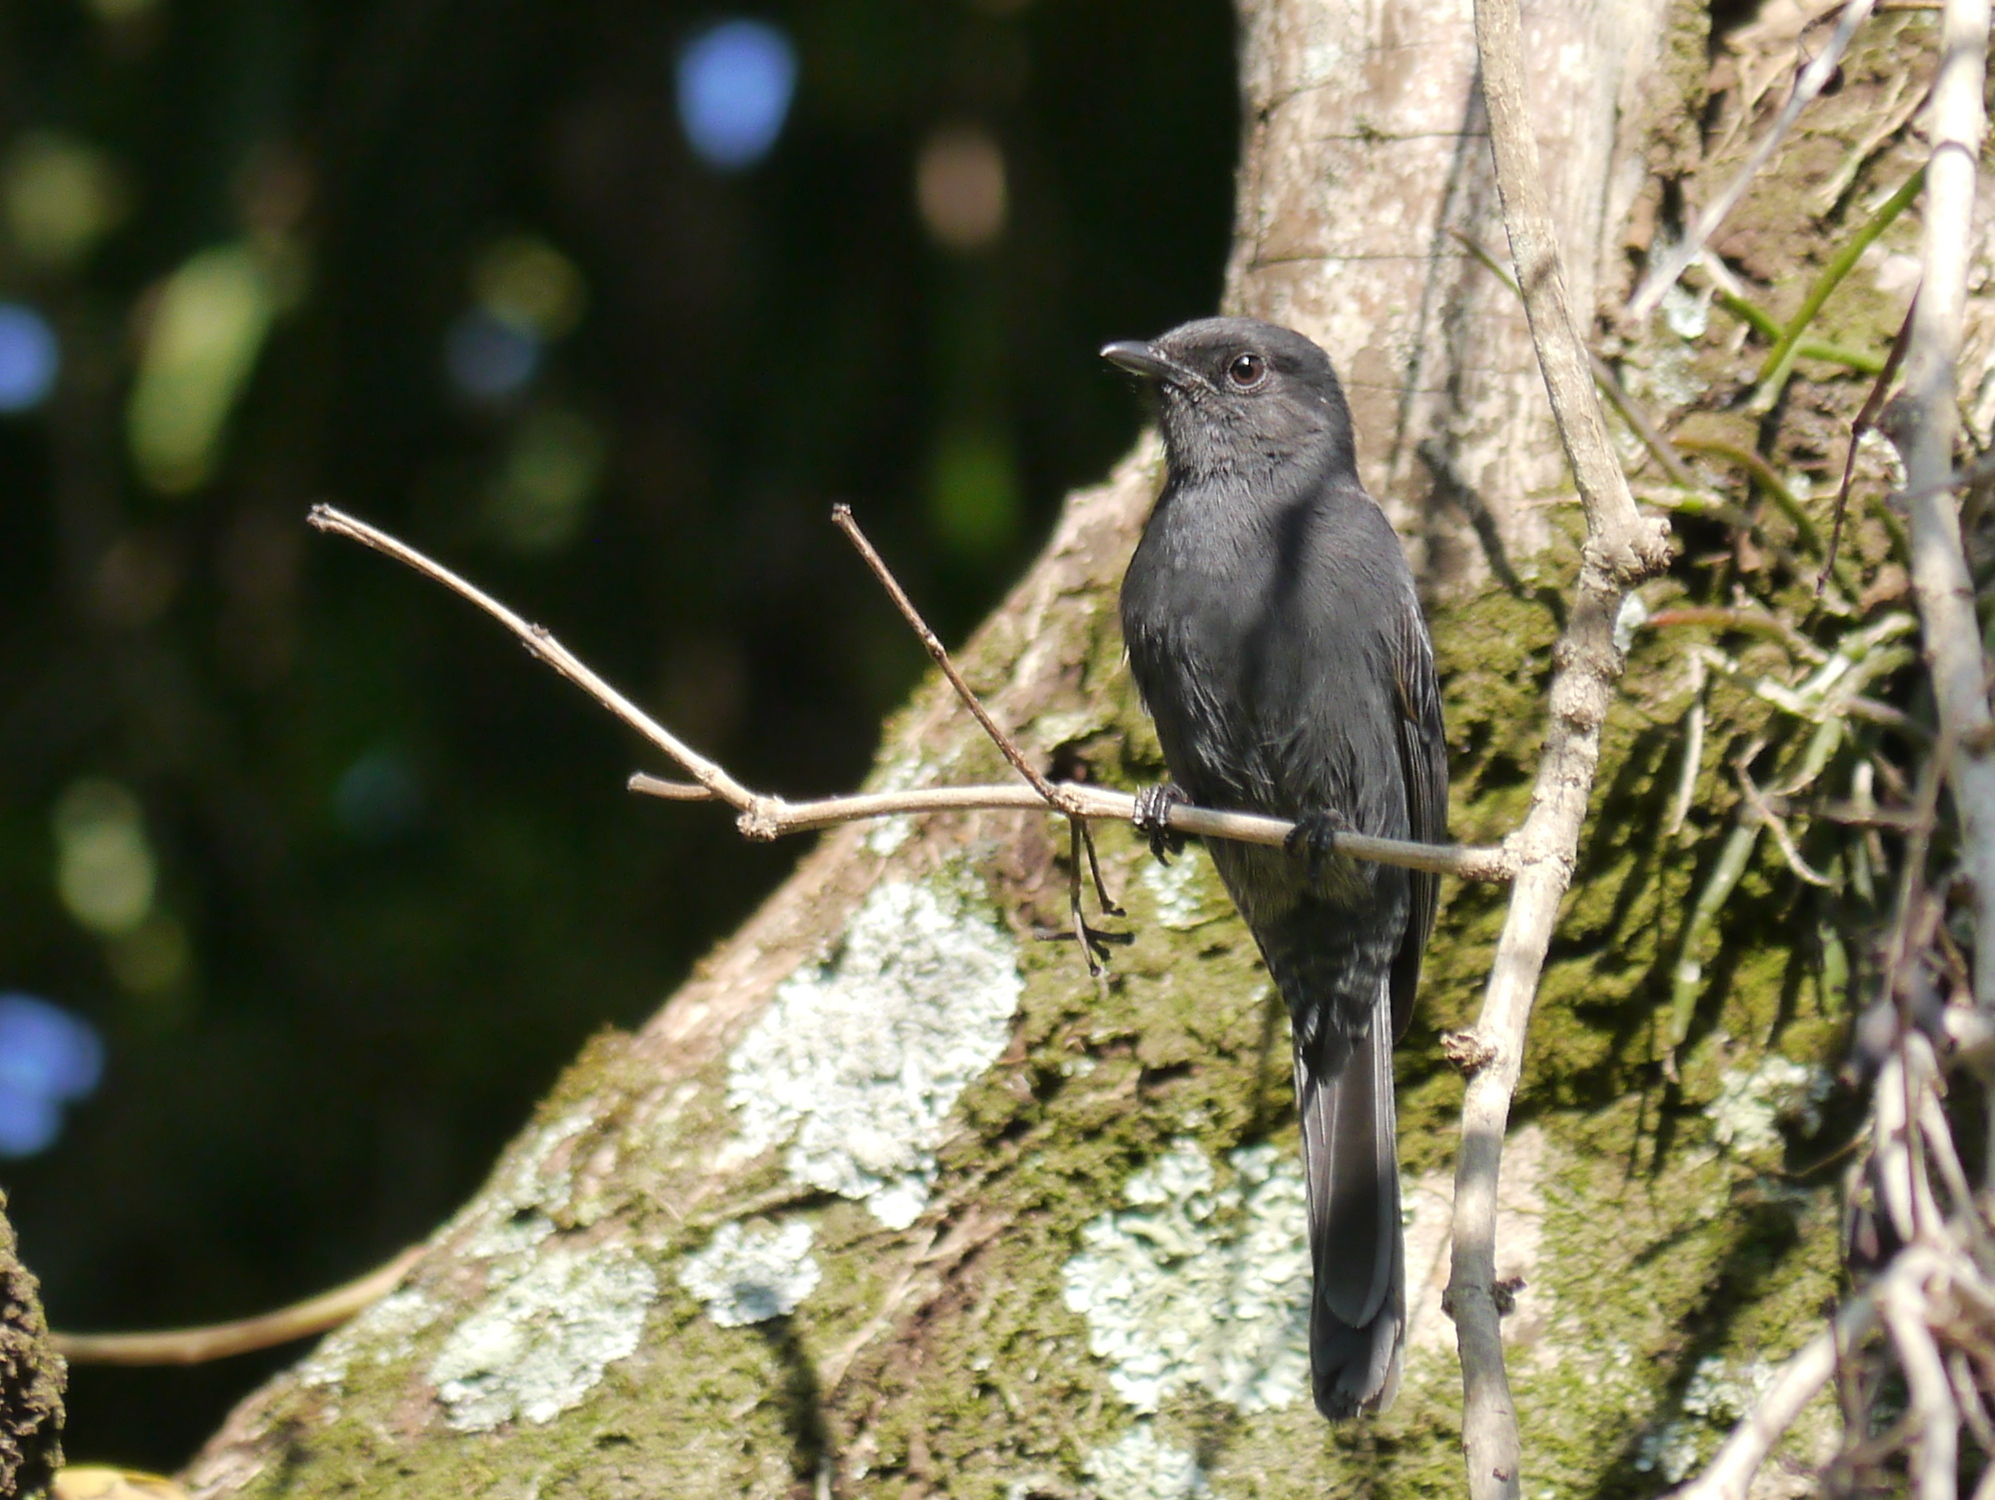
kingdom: Animalia
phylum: Chordata
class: Aves
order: Passeriformes
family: Muscicapidae
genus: Melaenornis
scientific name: Melaenornis edolioides
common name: Northern black flycatcher
